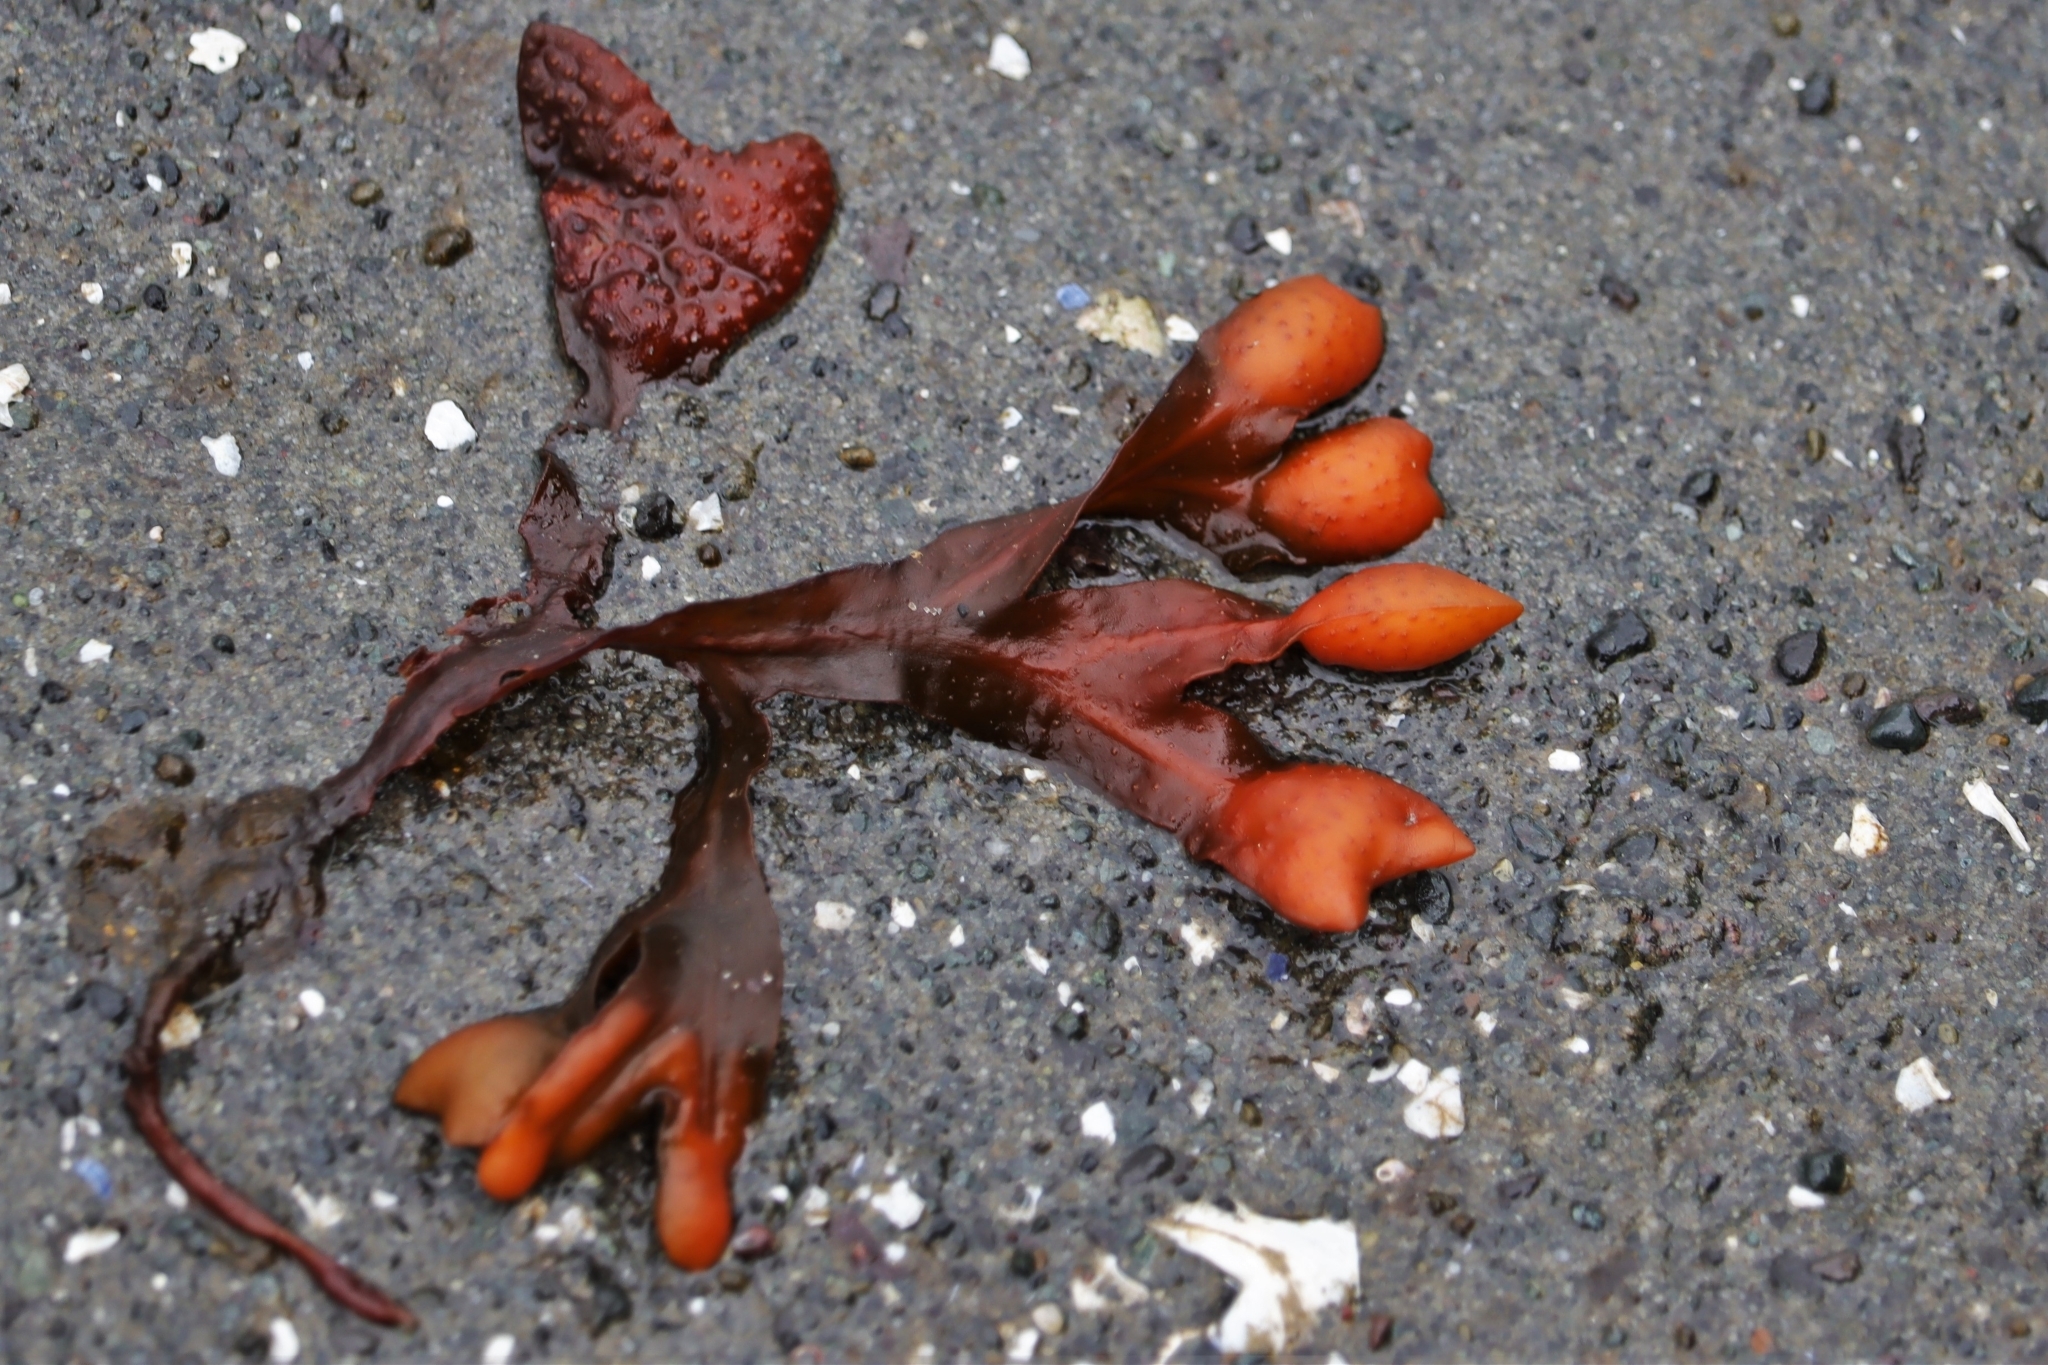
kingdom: Chromista
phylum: Ochrophyta
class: Phaeophyceae
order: Fucales
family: Fucaceae
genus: Fucus
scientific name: Fucus distichus
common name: Rockweed
